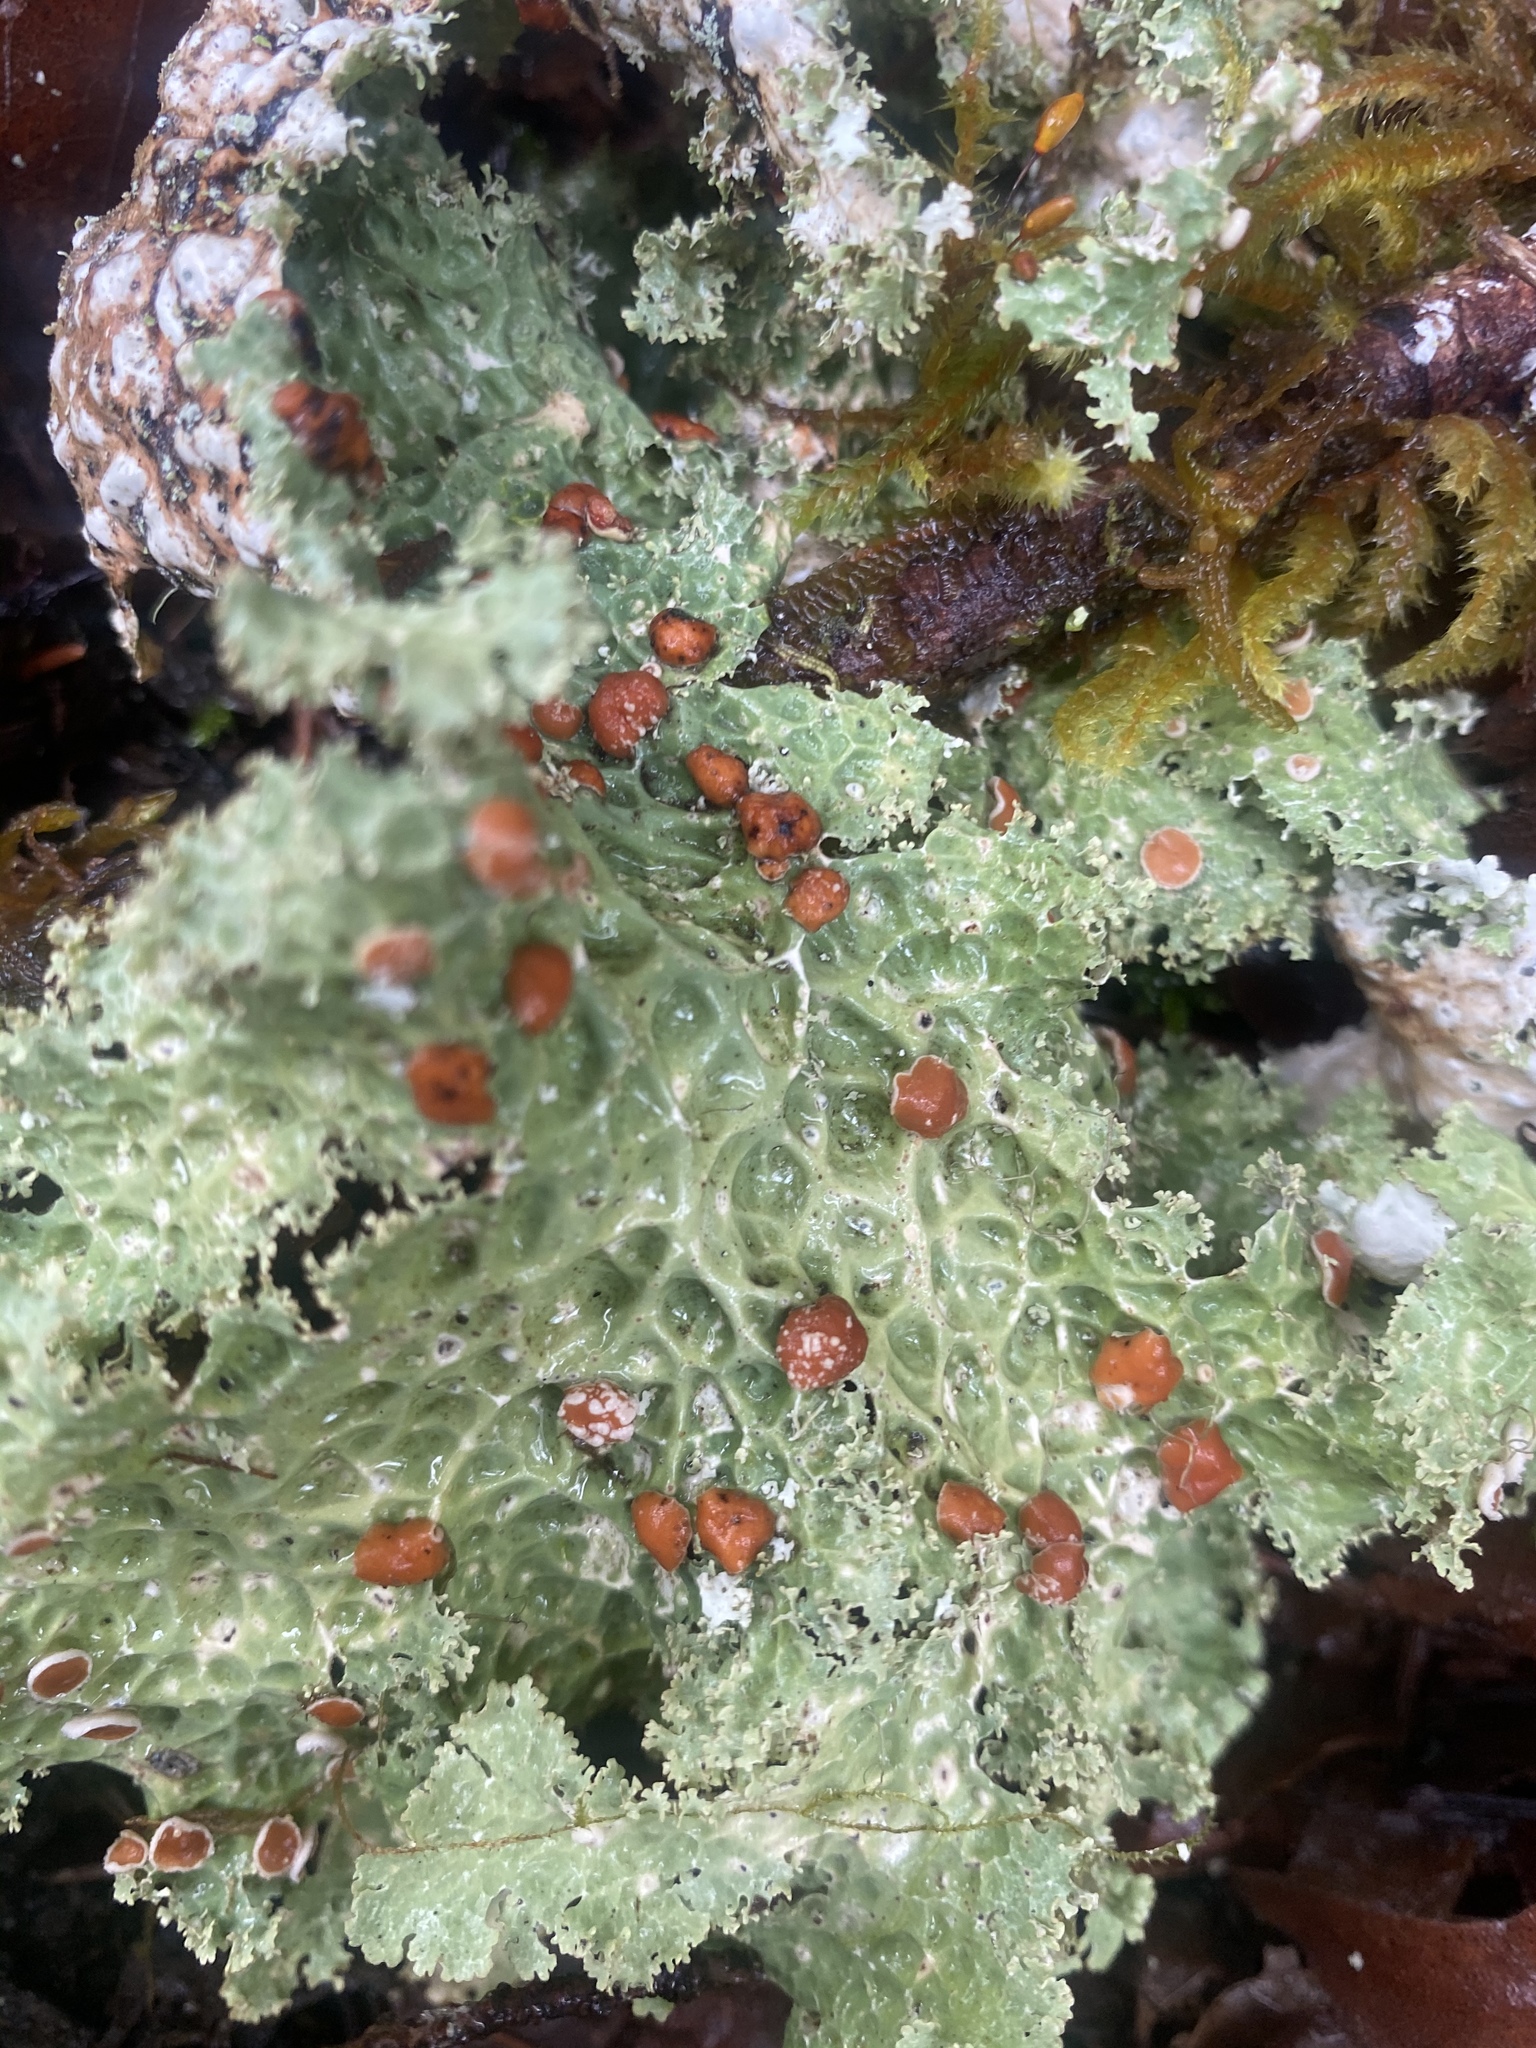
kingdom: Fungi
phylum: Ascomycota
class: Lecanoromycetes
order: Peltigerales
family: Lobariaceae
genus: Lobaria
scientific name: Lobaria oregana
